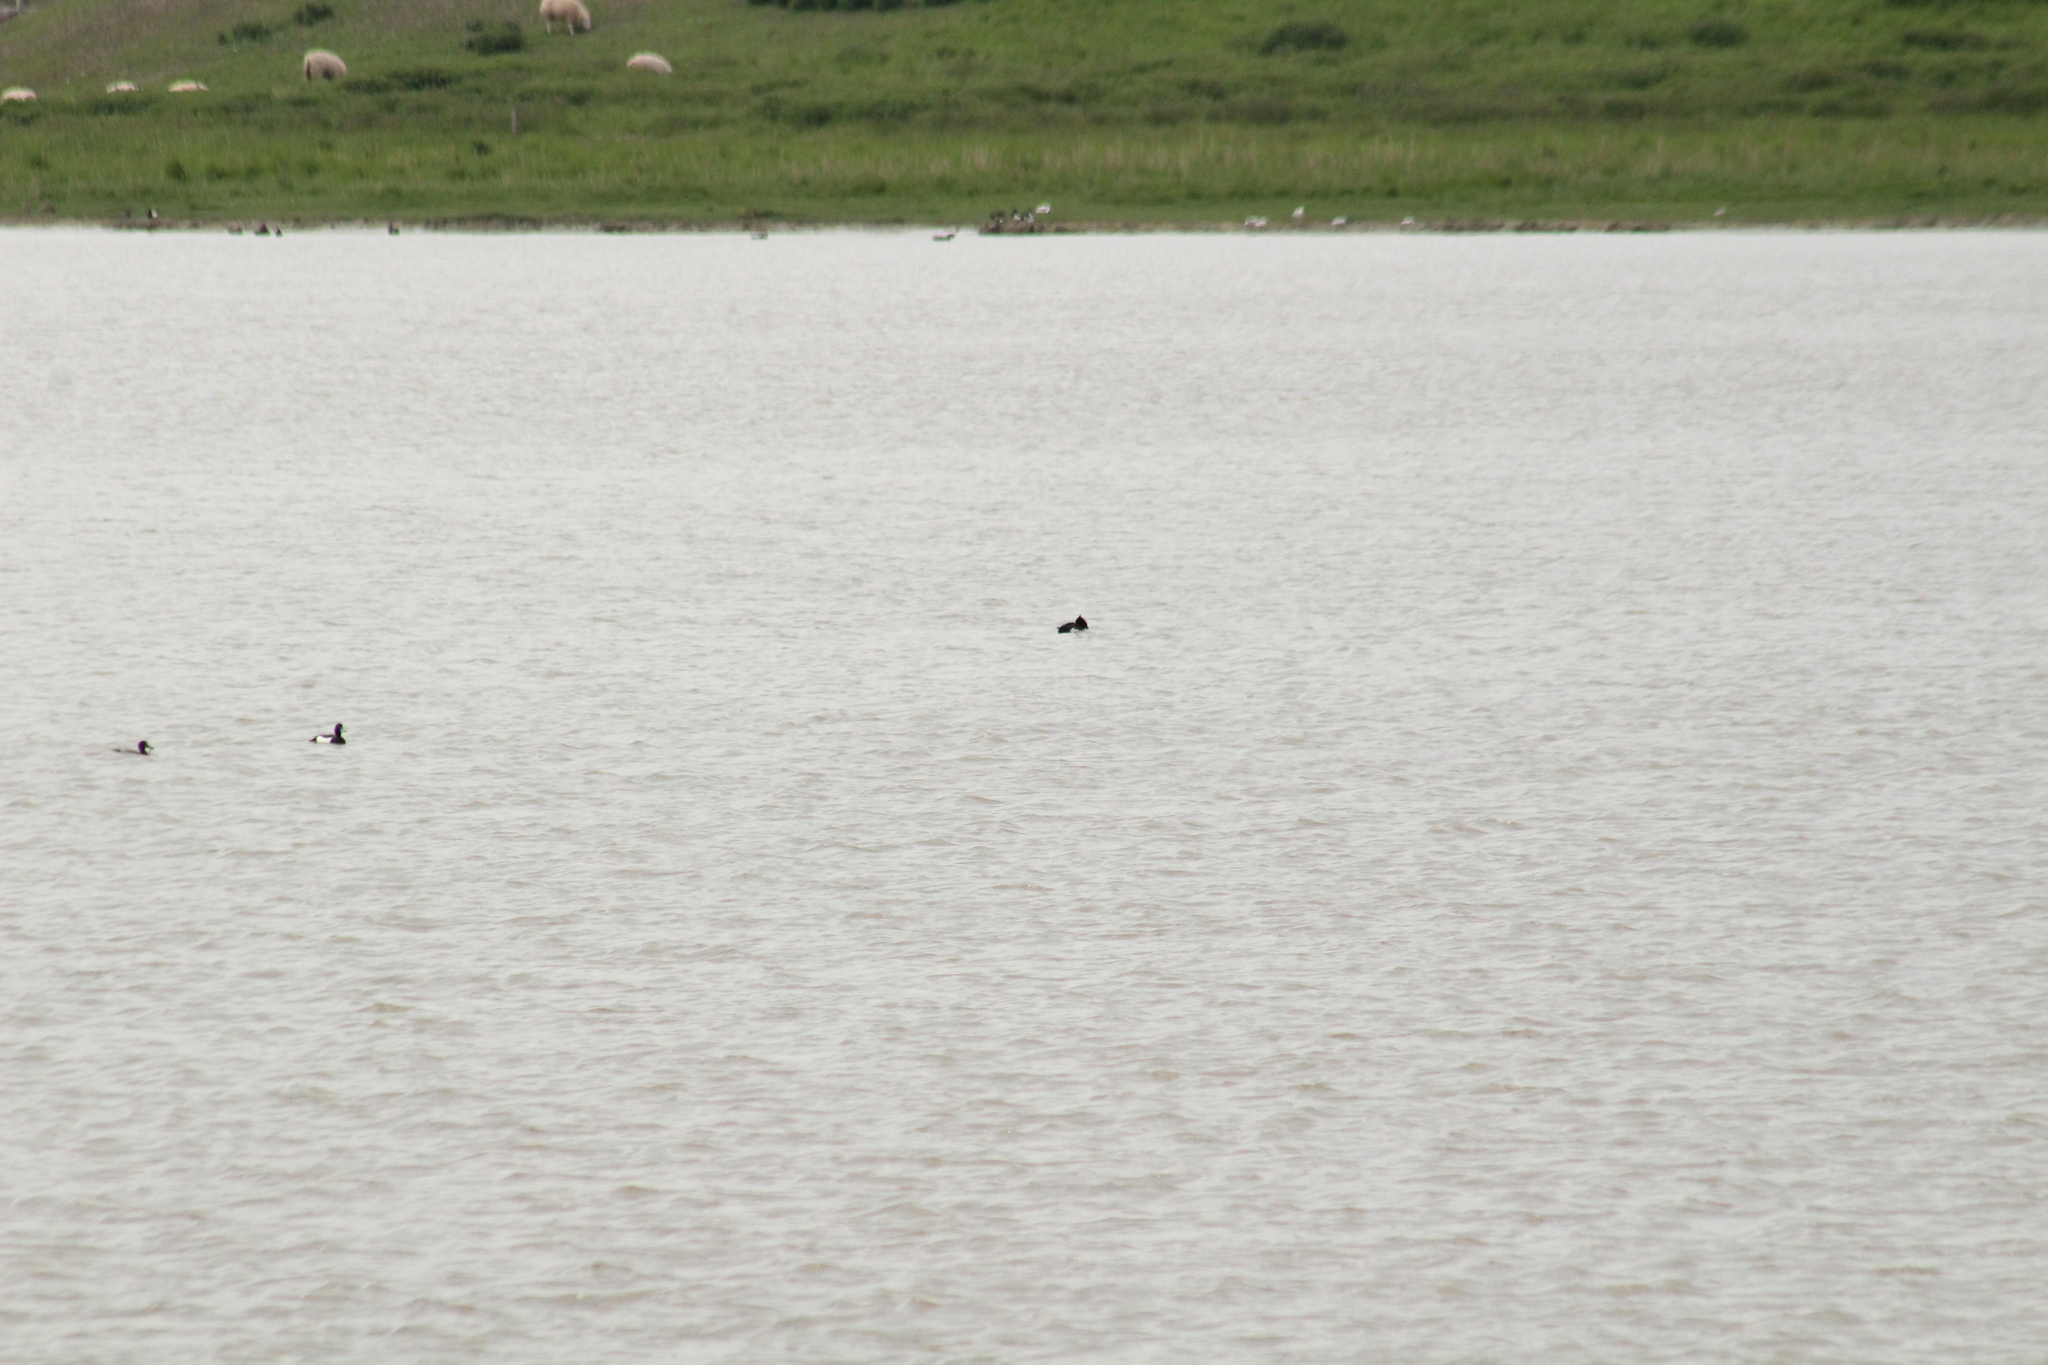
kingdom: Animalia
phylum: Chordata
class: Aves
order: Anseriformes
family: Anatidae
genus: Aythya
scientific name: Aythya fuligula
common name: Tufted duck
